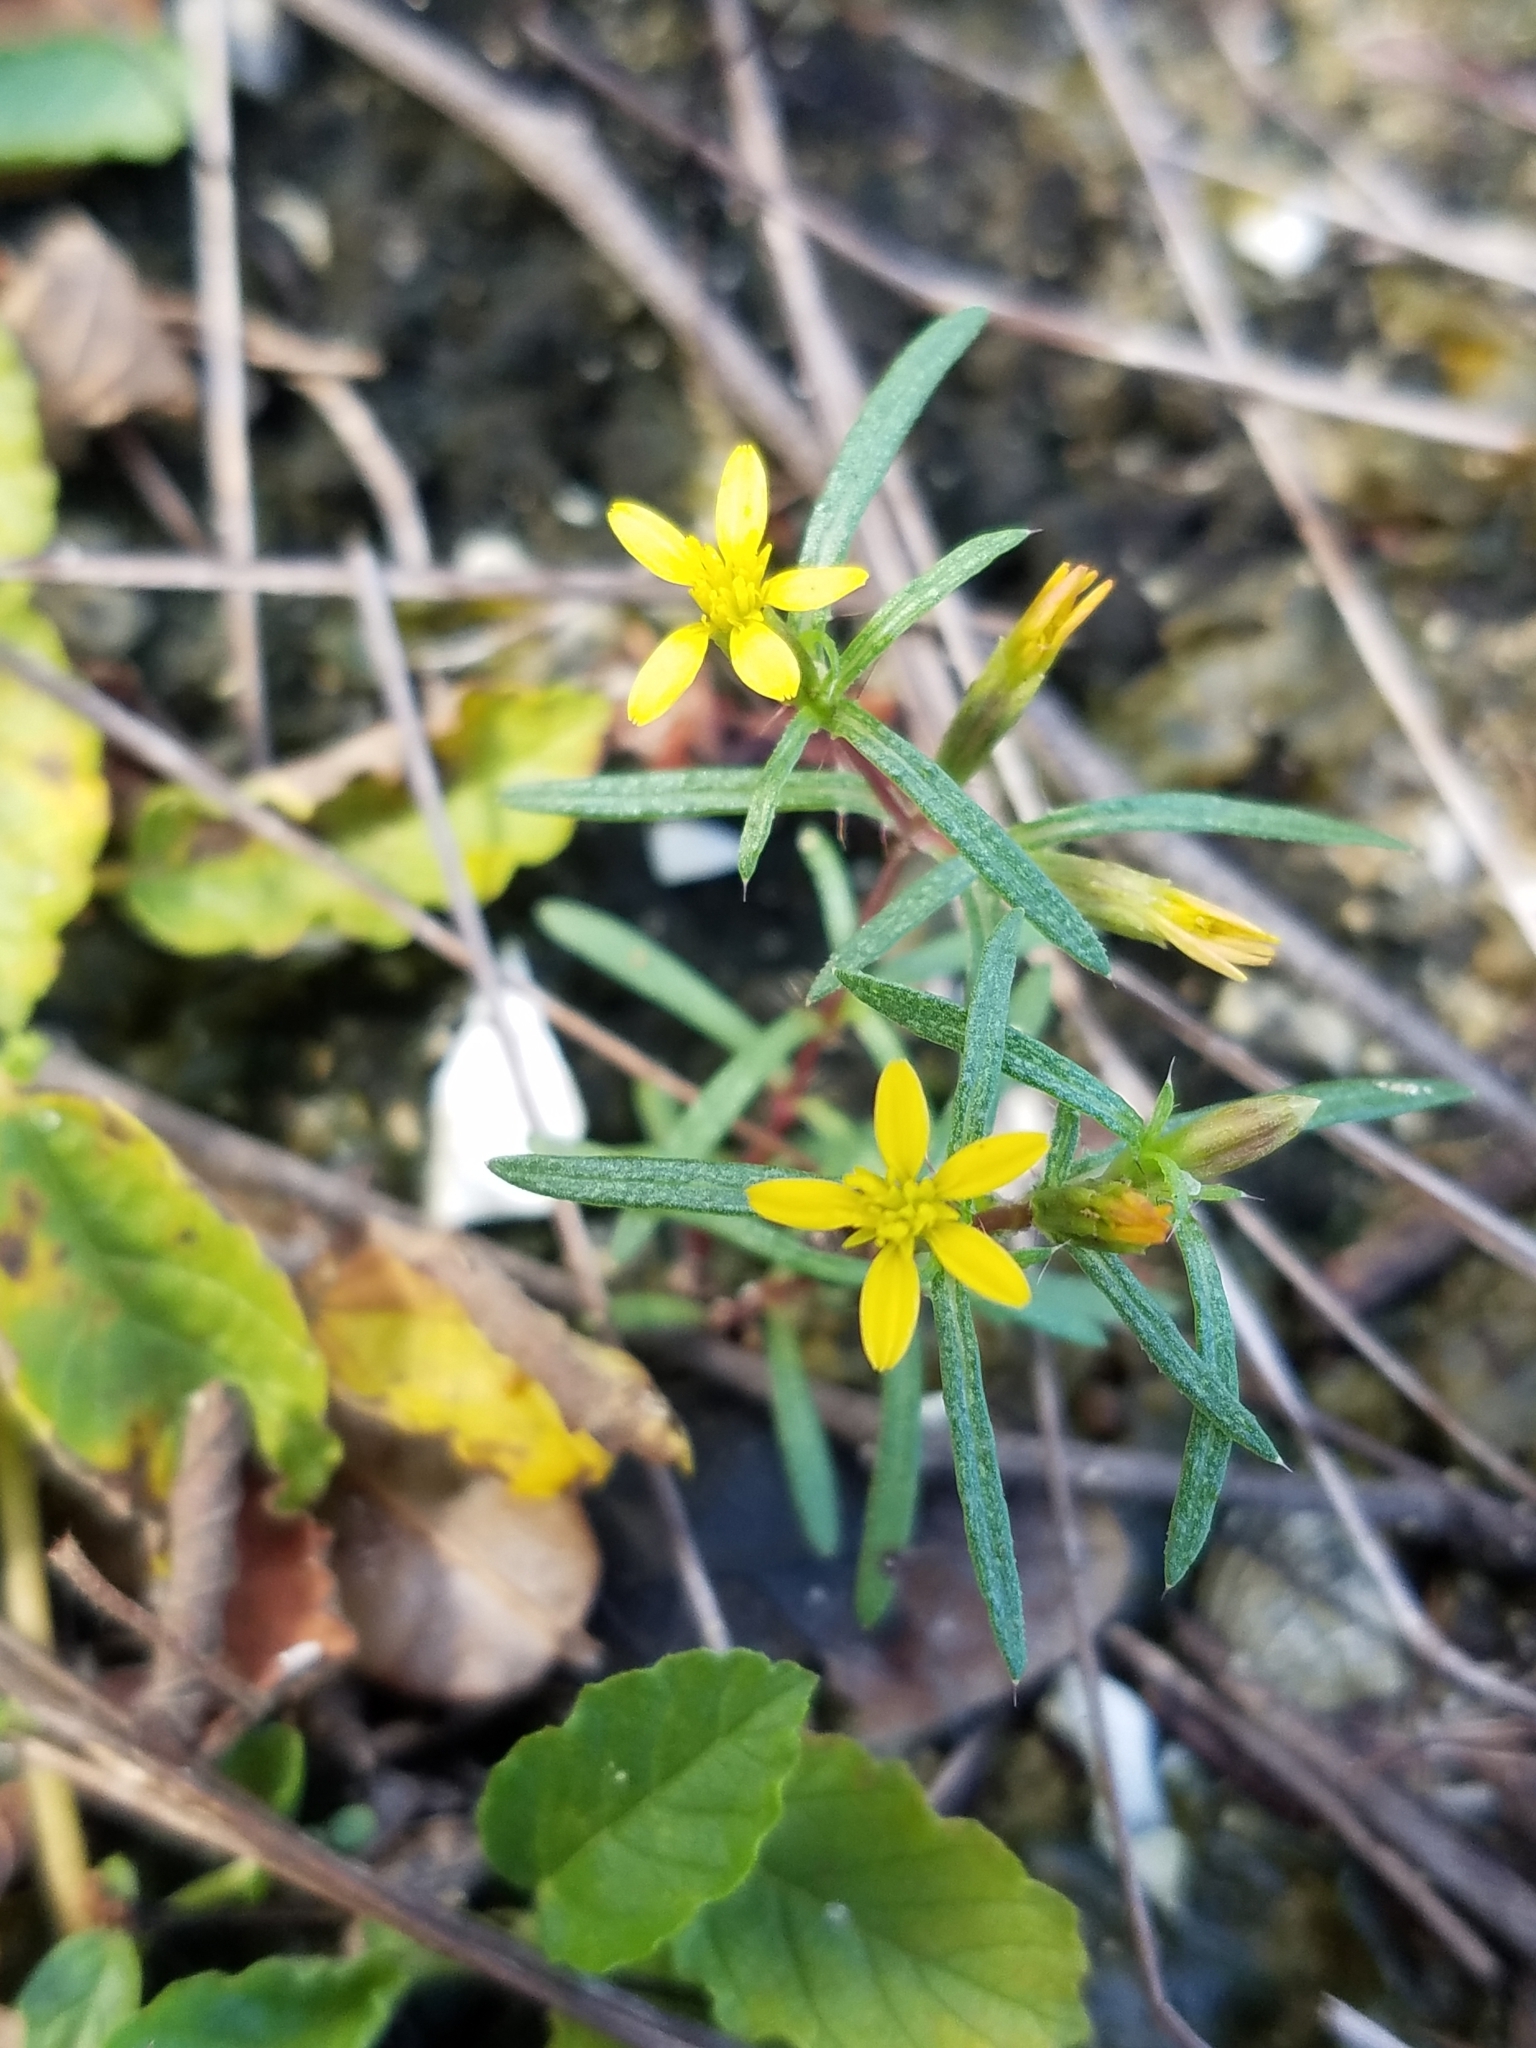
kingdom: Plantae
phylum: Tracheophyta
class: Magnoliopsida
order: Asterales
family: Asteraceae
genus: Pectis
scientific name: Pectis linearifolia
